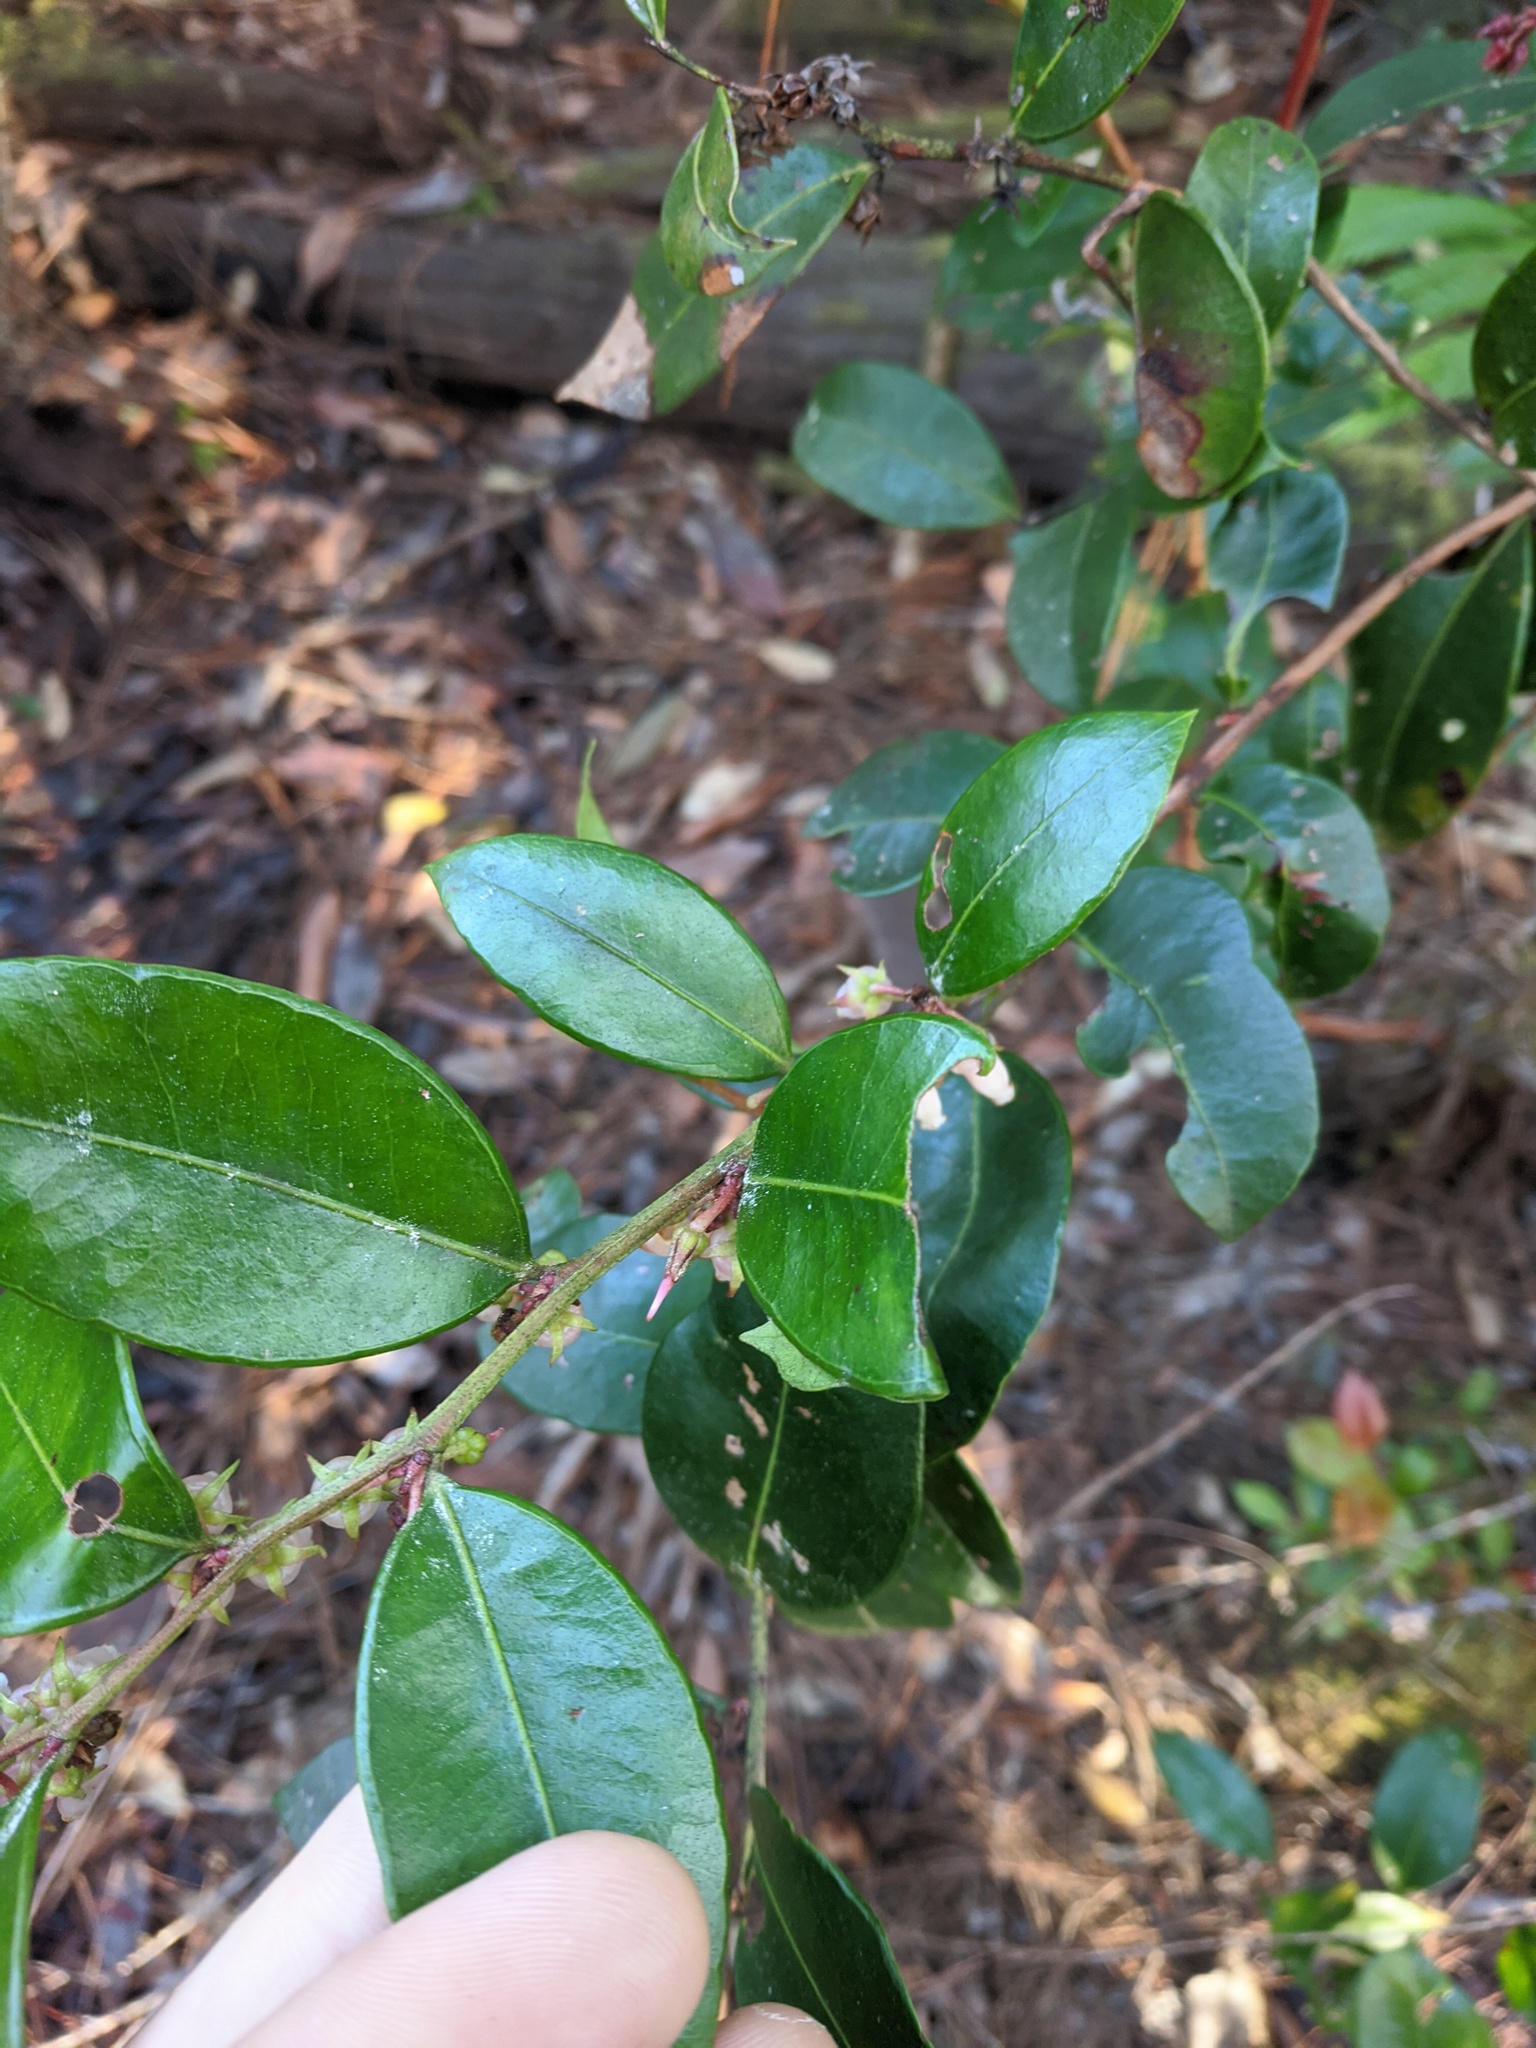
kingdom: Plantae
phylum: Tracheophyta
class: Magnoliopsida
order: Ericales
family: Ericaceae
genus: Lyonia
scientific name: Lyonia lucida
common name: Fetterbush
